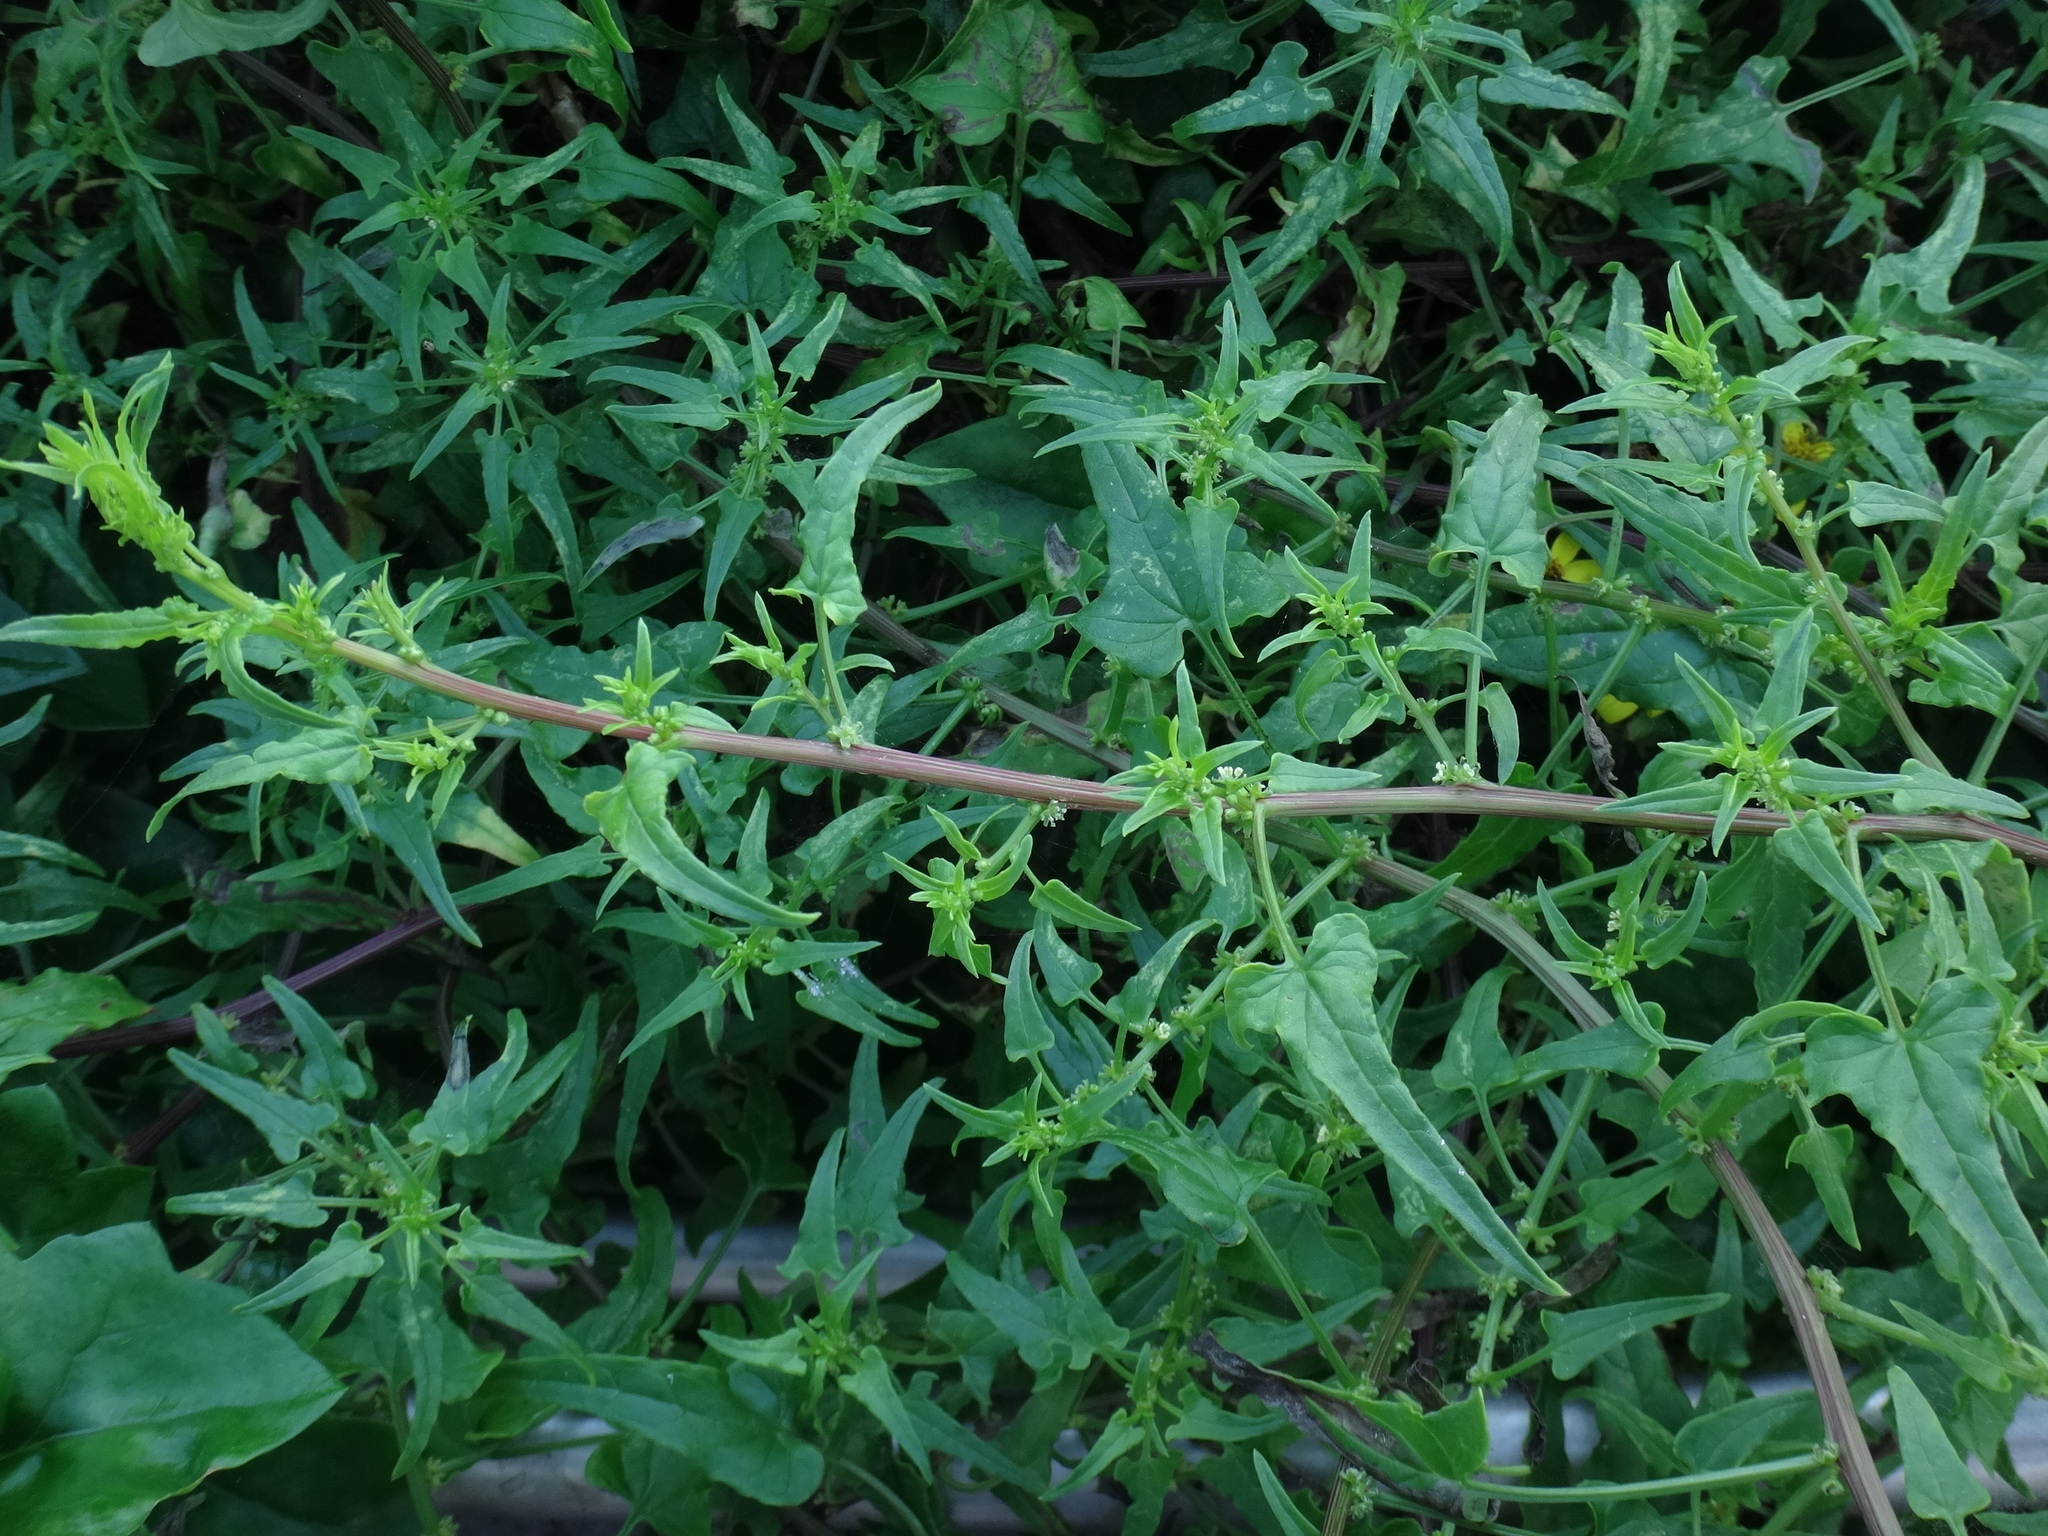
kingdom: Plantae
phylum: Tracheophyta
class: Magnoliopsida
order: Caryophyllales
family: Amaranthaceae
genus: Patellifolia
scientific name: Patellifolia procumbens
